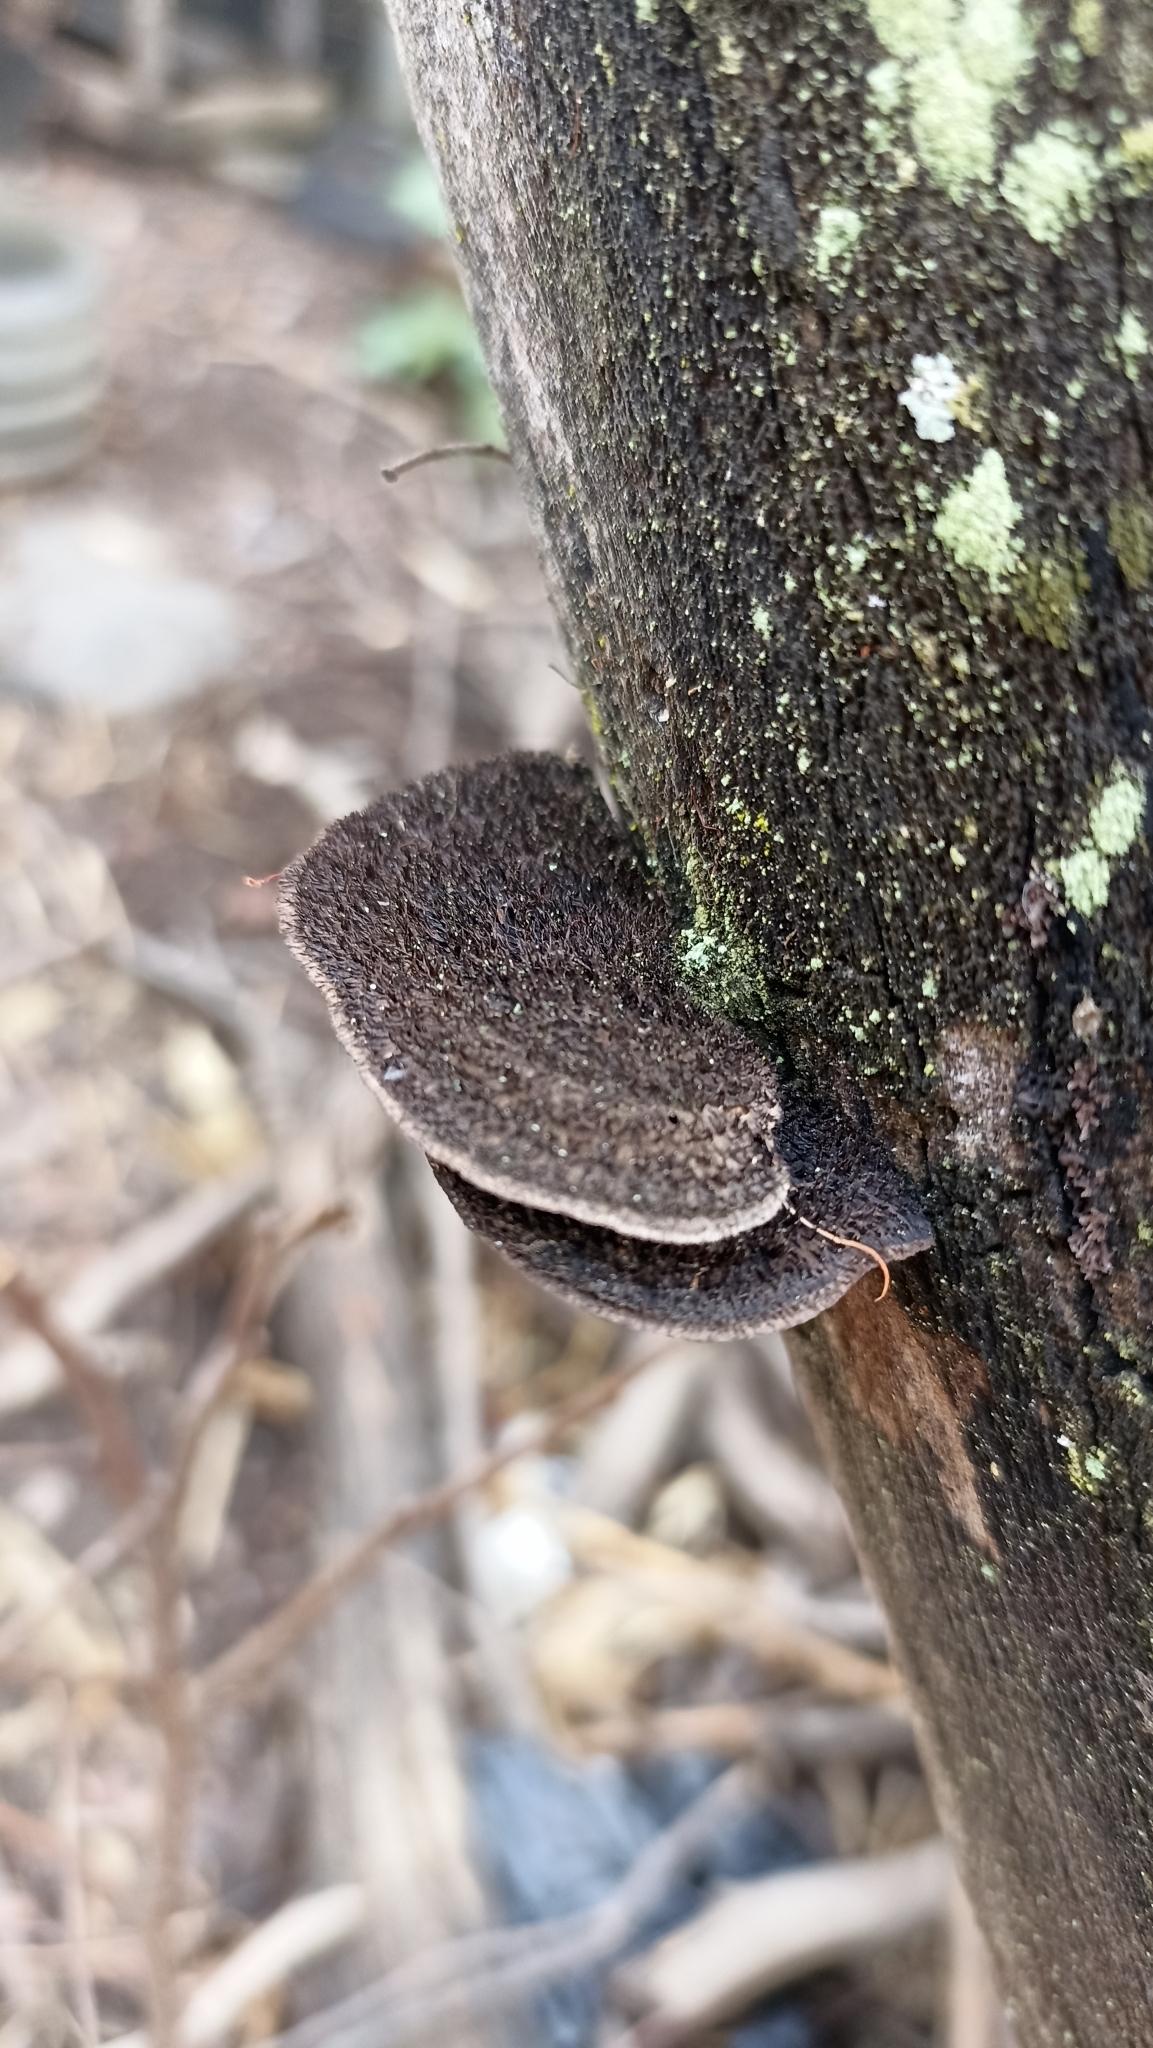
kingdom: Fungi
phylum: Basidiomycota
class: Agaricomycetes
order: Polyporales
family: Cerrenaceae
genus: Cerrena
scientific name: Cerrena hydnoides
